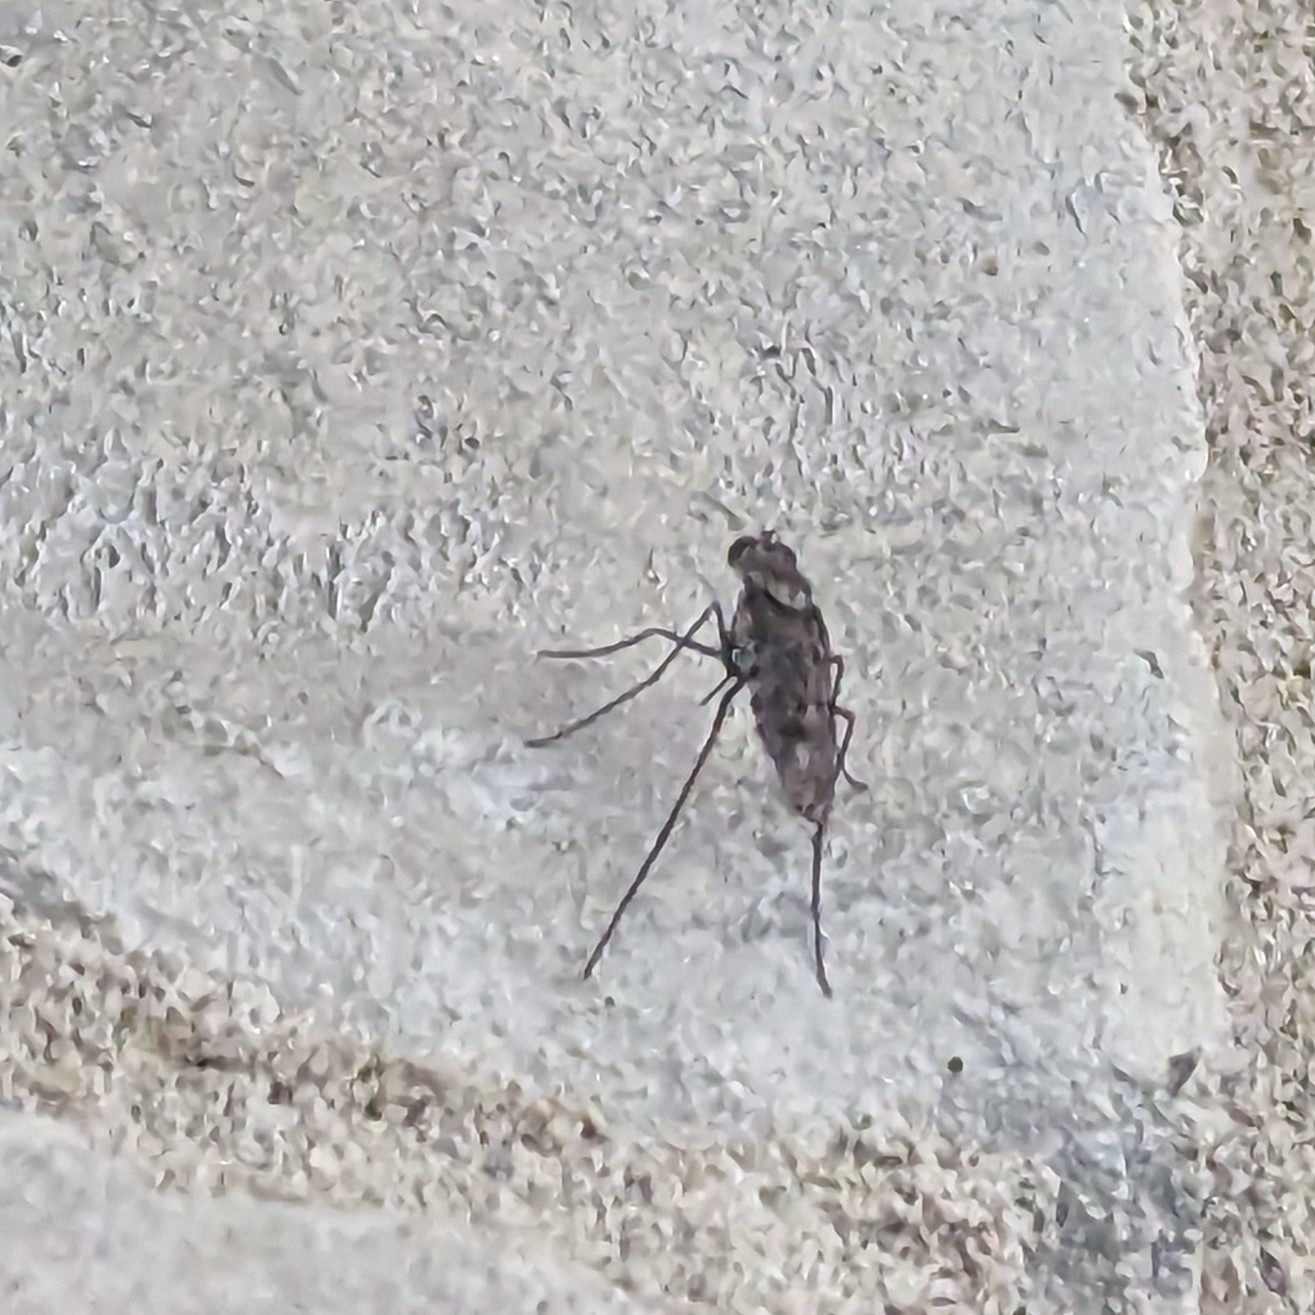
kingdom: Animalia
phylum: Arthropoda
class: Insecta
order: Diptera
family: Dolichopodidae
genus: Liancalus
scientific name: Liancalus genualis
